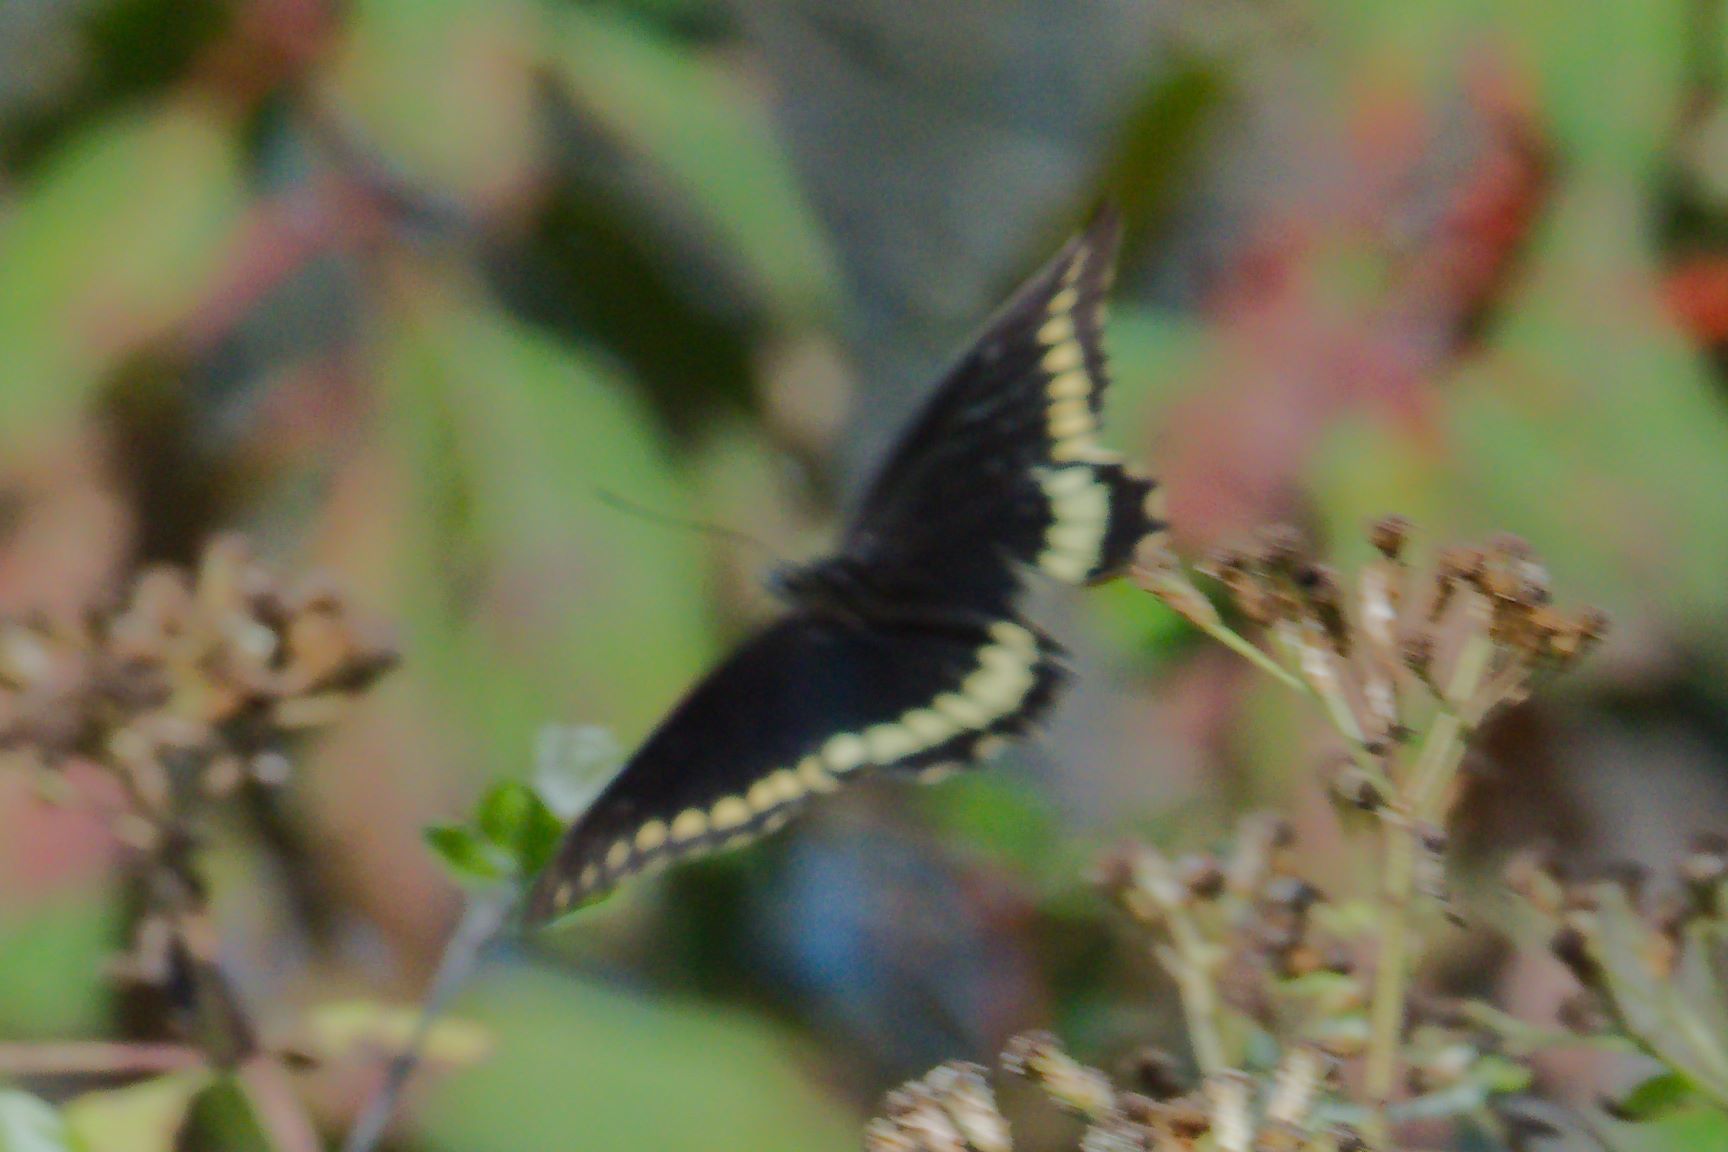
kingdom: Animalia
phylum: Arthropoda
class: Insecta
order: Lepidoptera
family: Papilionidae
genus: Battus
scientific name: Battus polydamas
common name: Polydamas swallowtail
